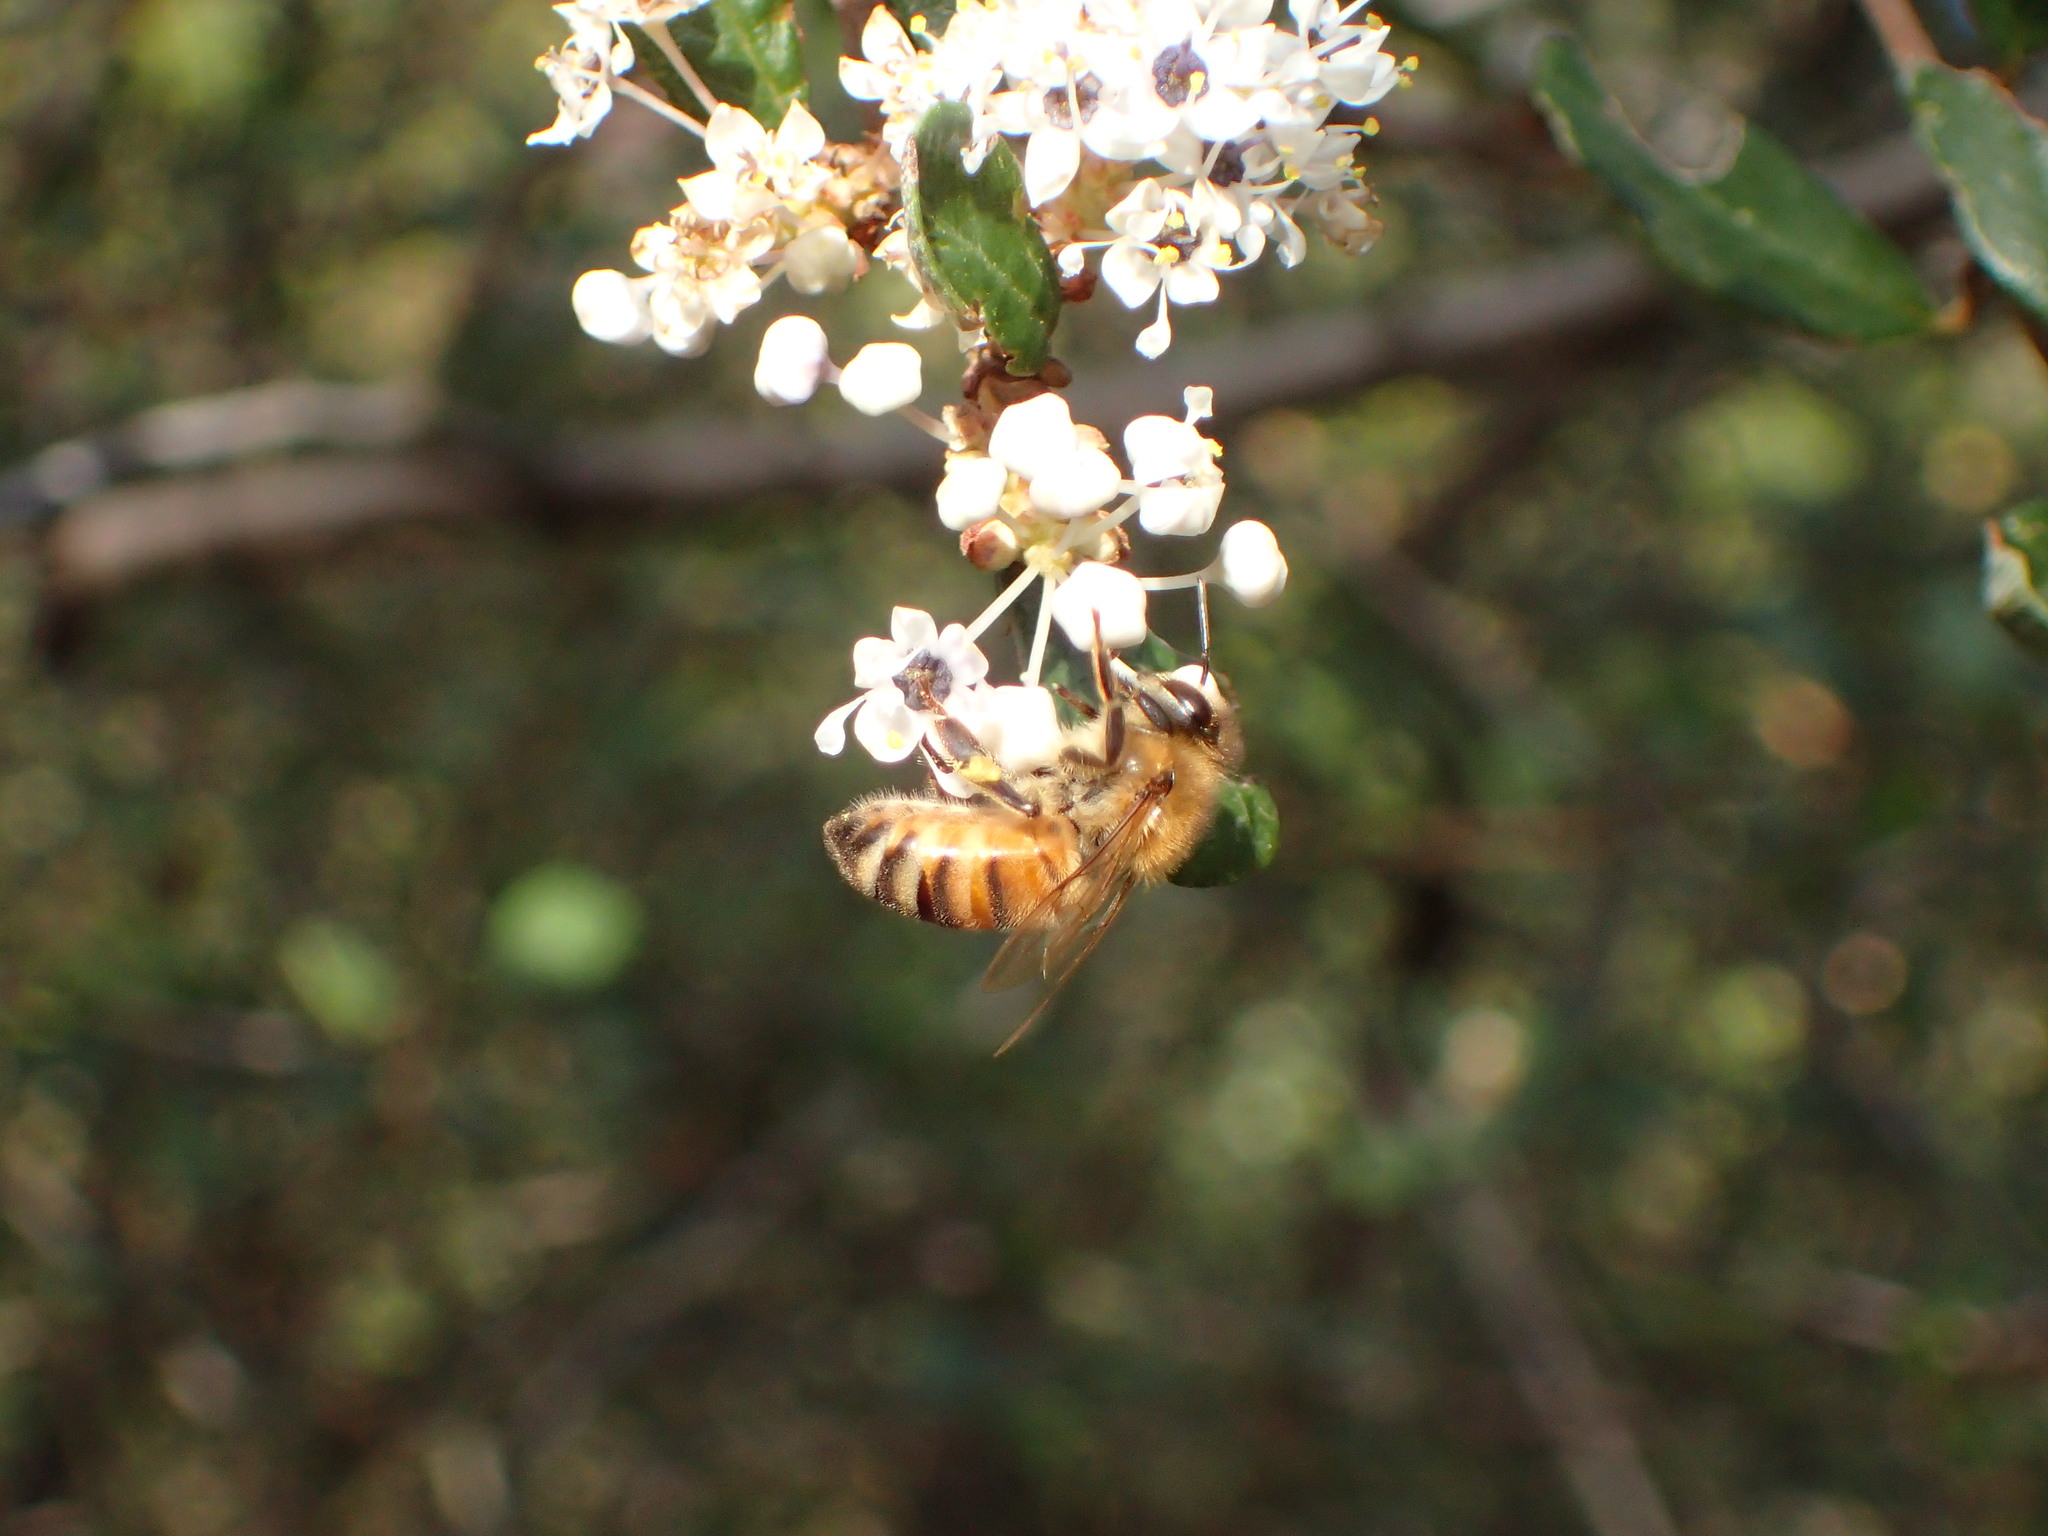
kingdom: Plantae
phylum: Tracheophyta
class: Magnoliopsida
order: Rosales
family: Rhamnaceae
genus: Ceanothus
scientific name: Ceanothus megacarpus
